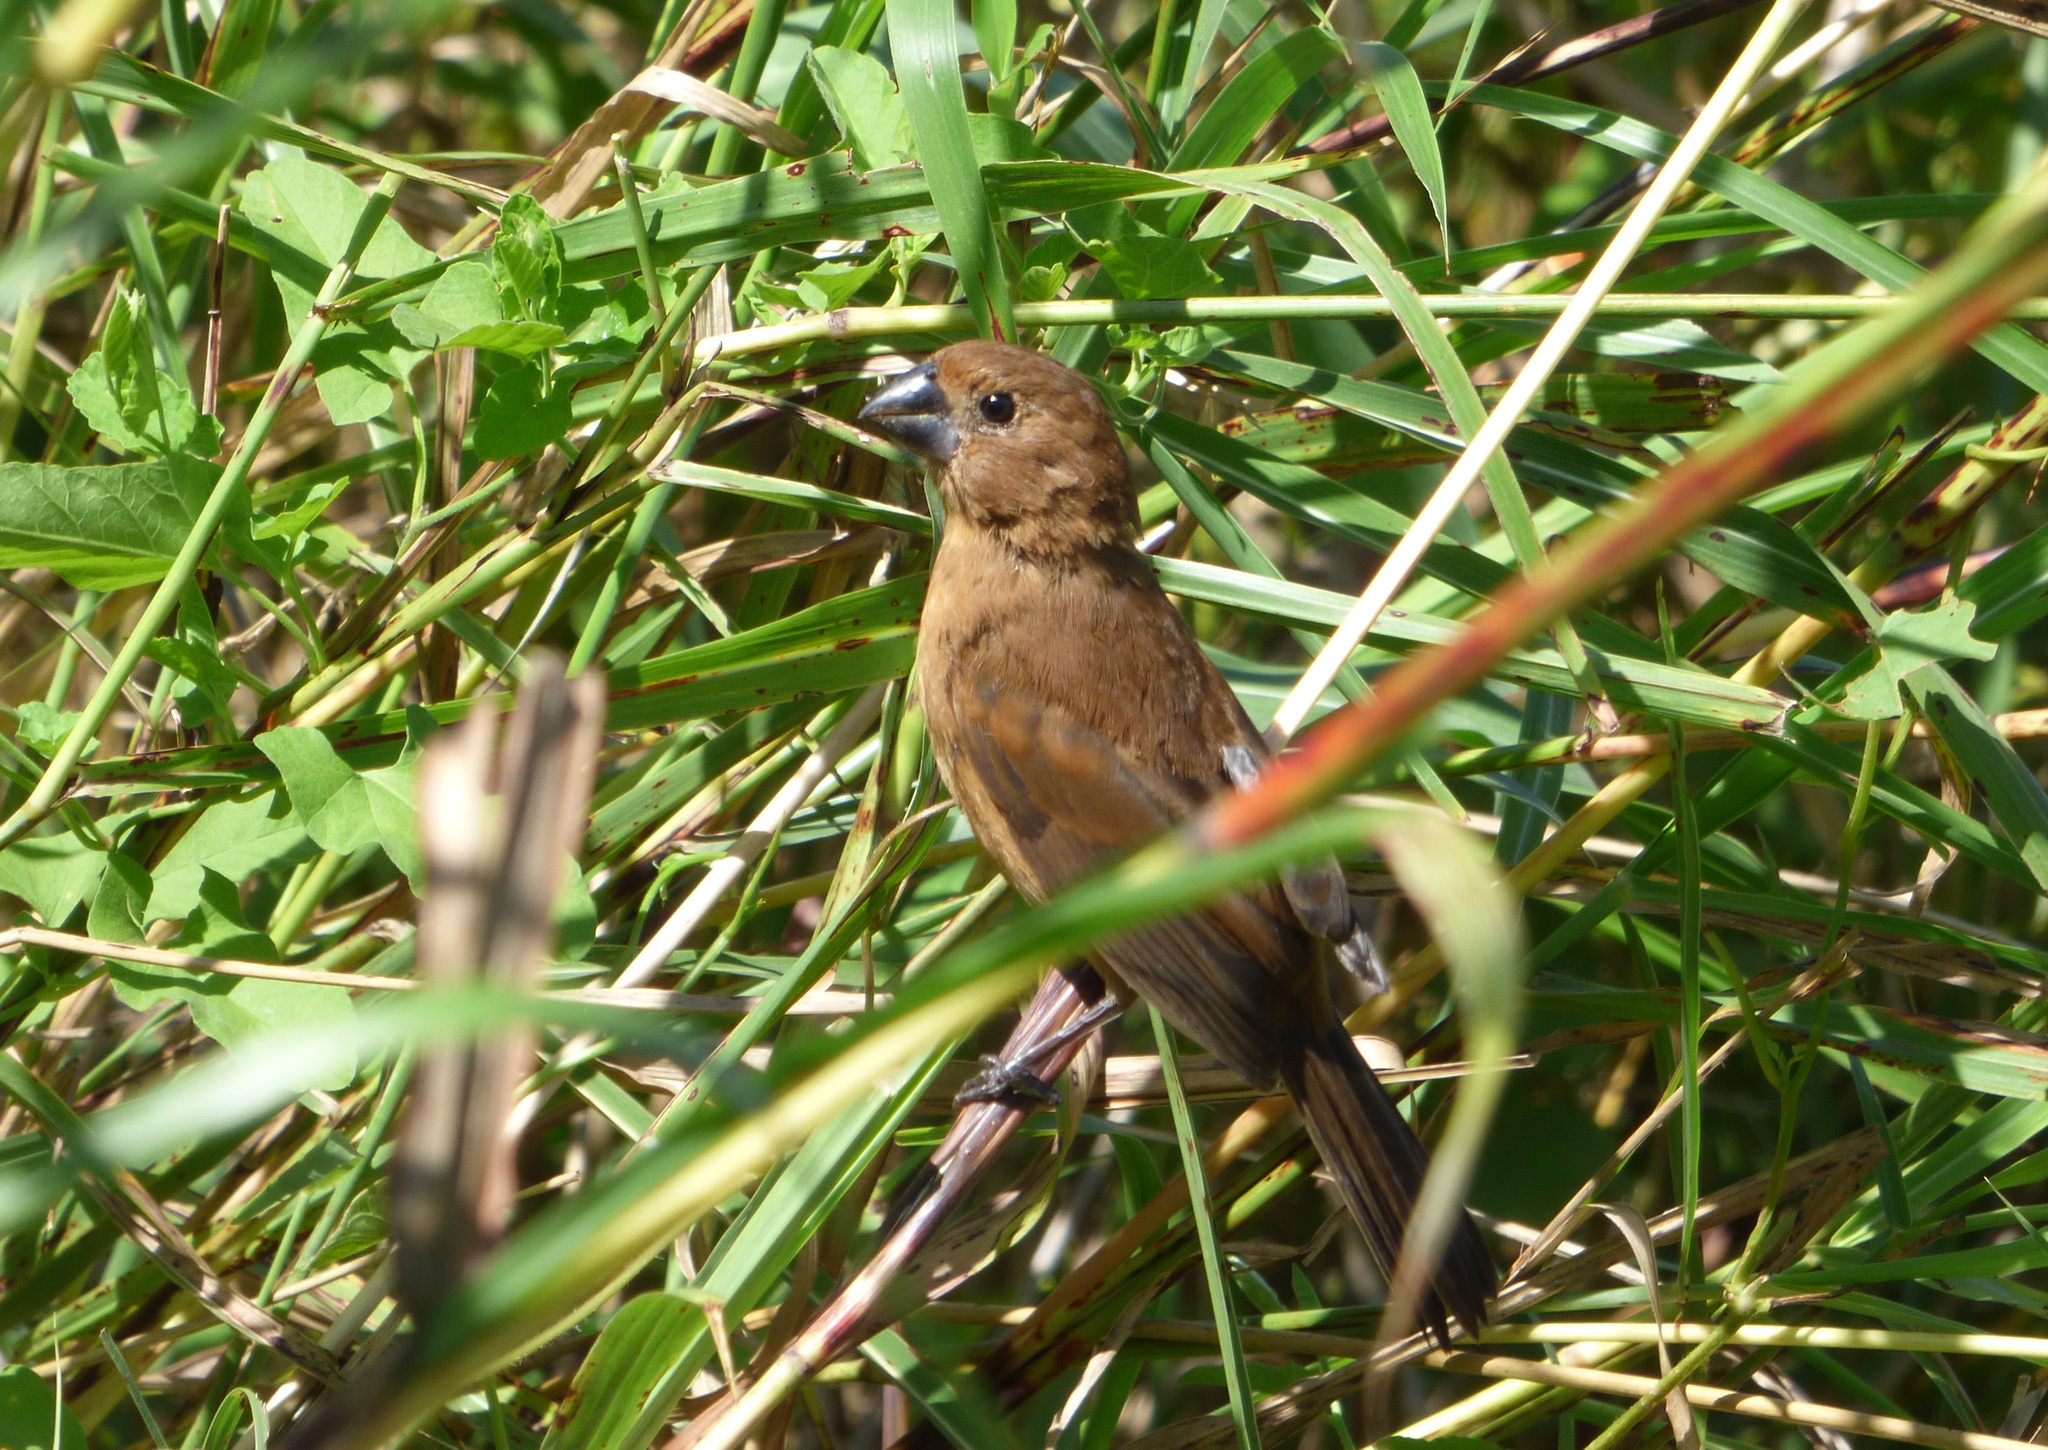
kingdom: Animalia
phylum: Chordata
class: Aves
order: Passeriformes
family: Cardinalidae
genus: Cyanoloxia
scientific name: Cyanoloxia brissonii
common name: Ultramarine grosbeak
